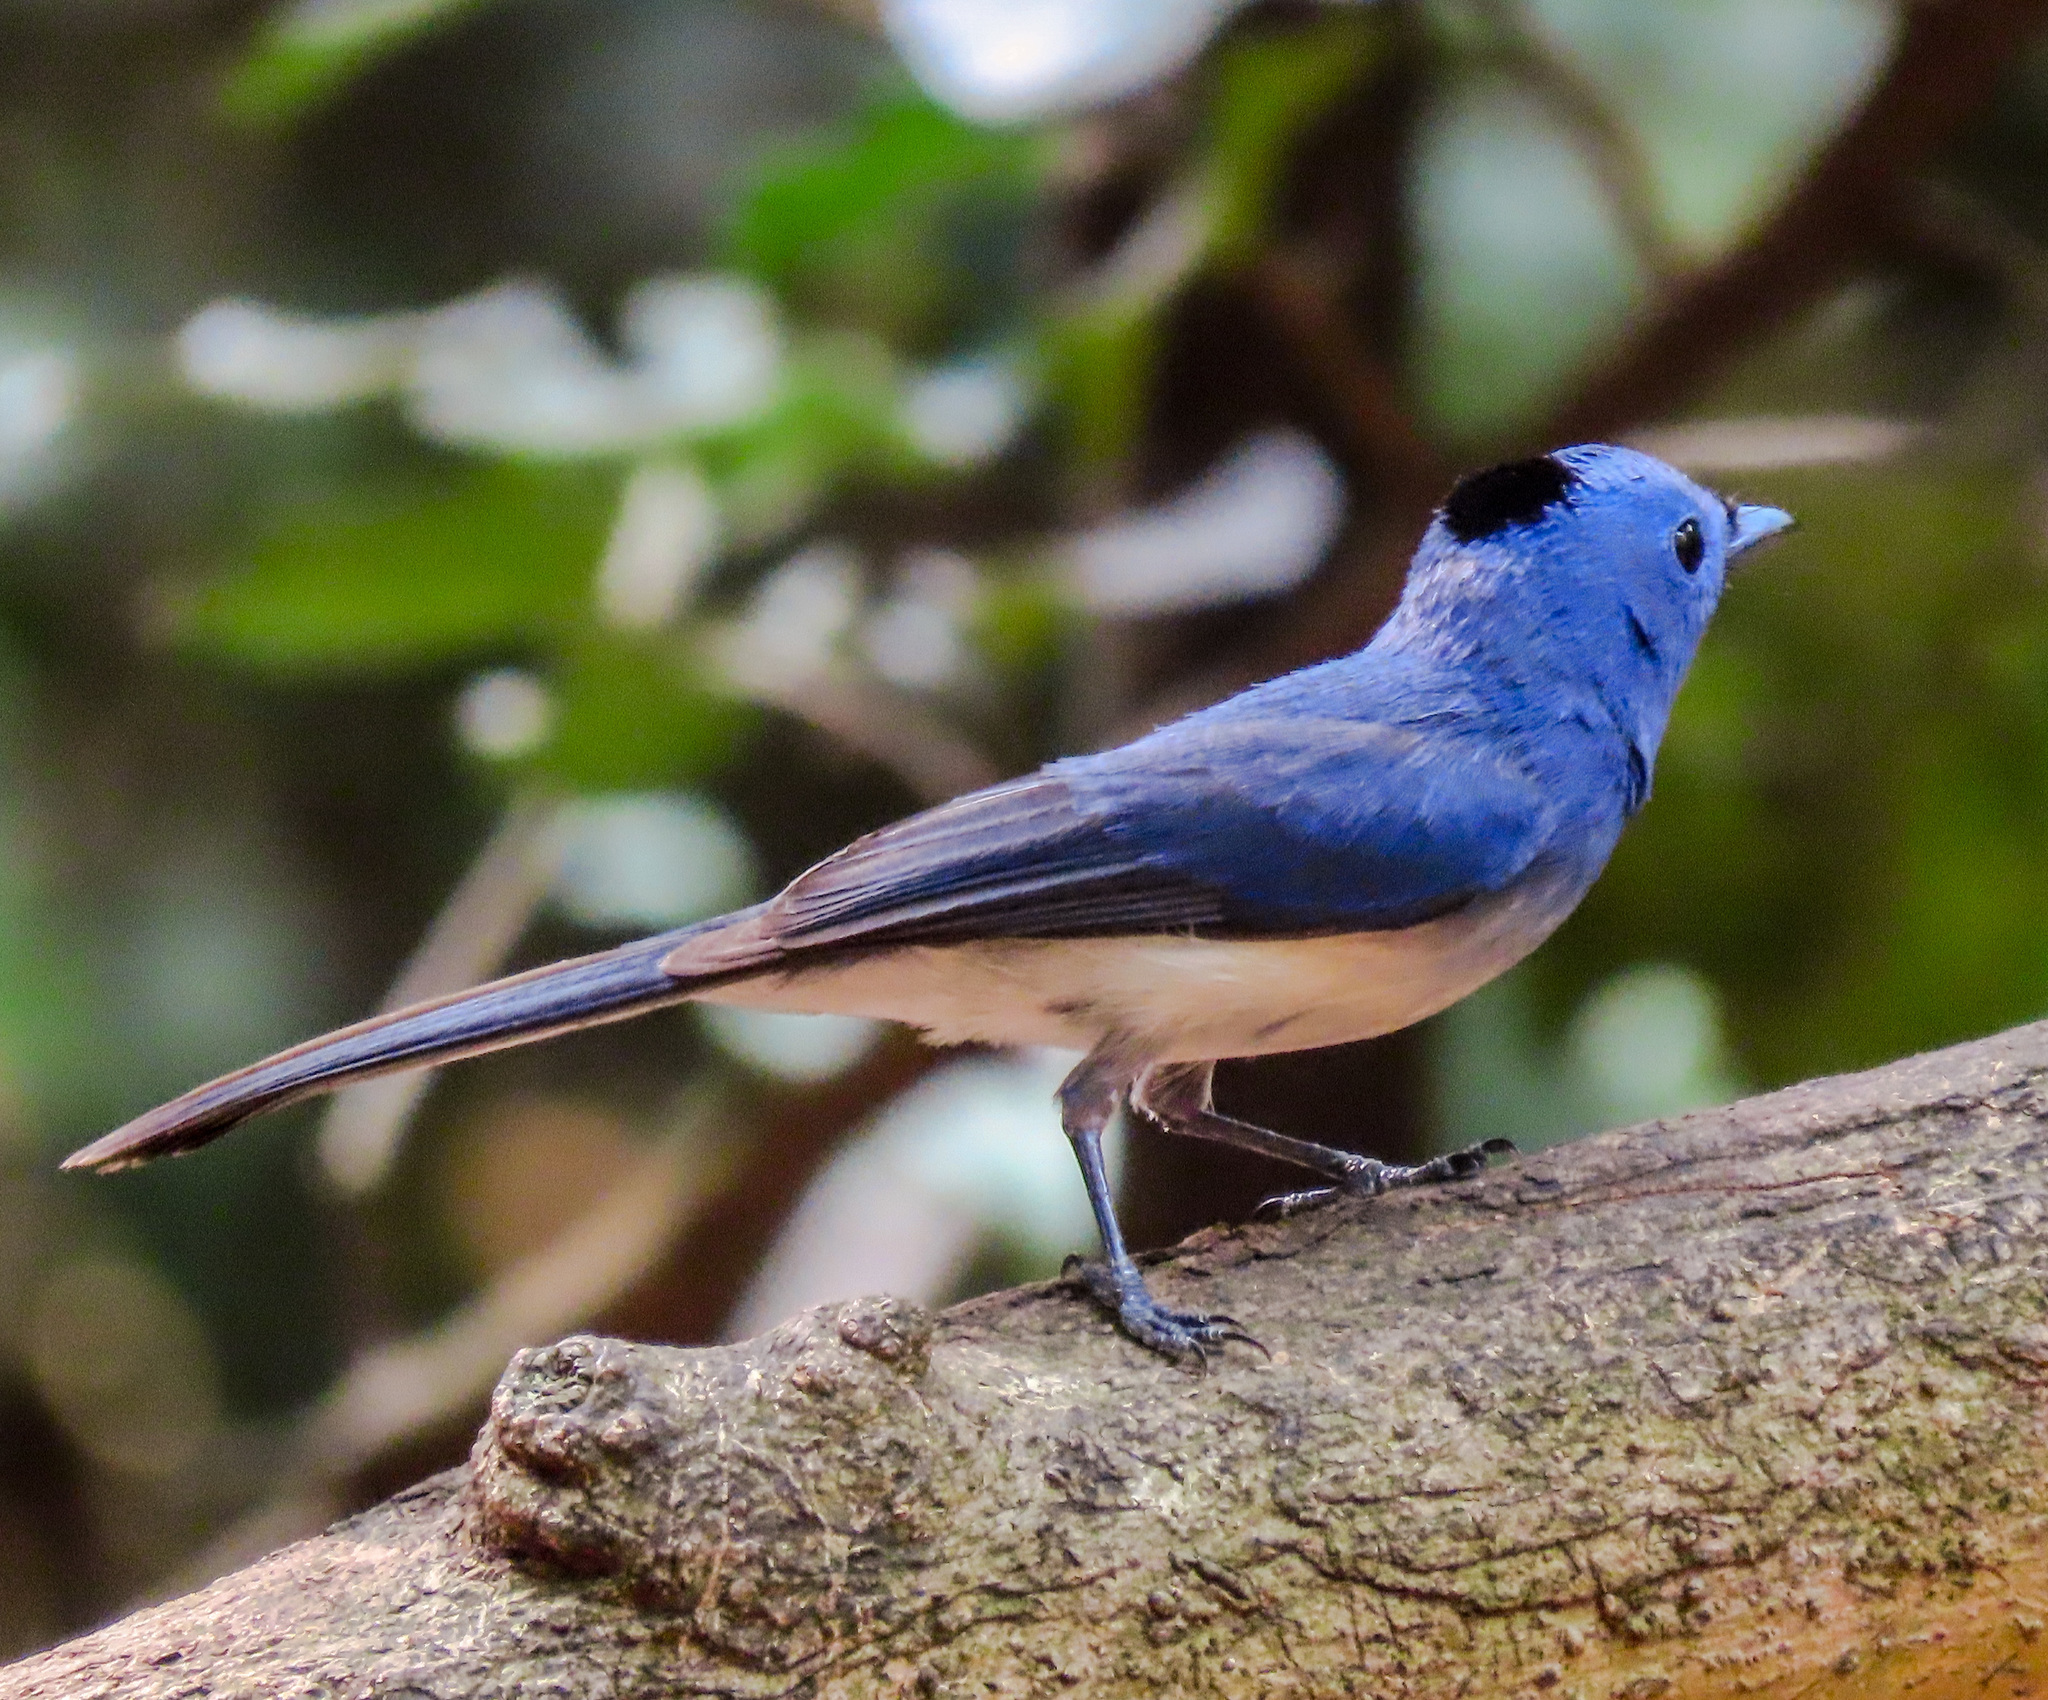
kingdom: Animalia
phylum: Chordata
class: Aves
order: Passeriformes
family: Monarchidae
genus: Hypothymis
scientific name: Hypothymis azurea
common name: Black-naped monarch
